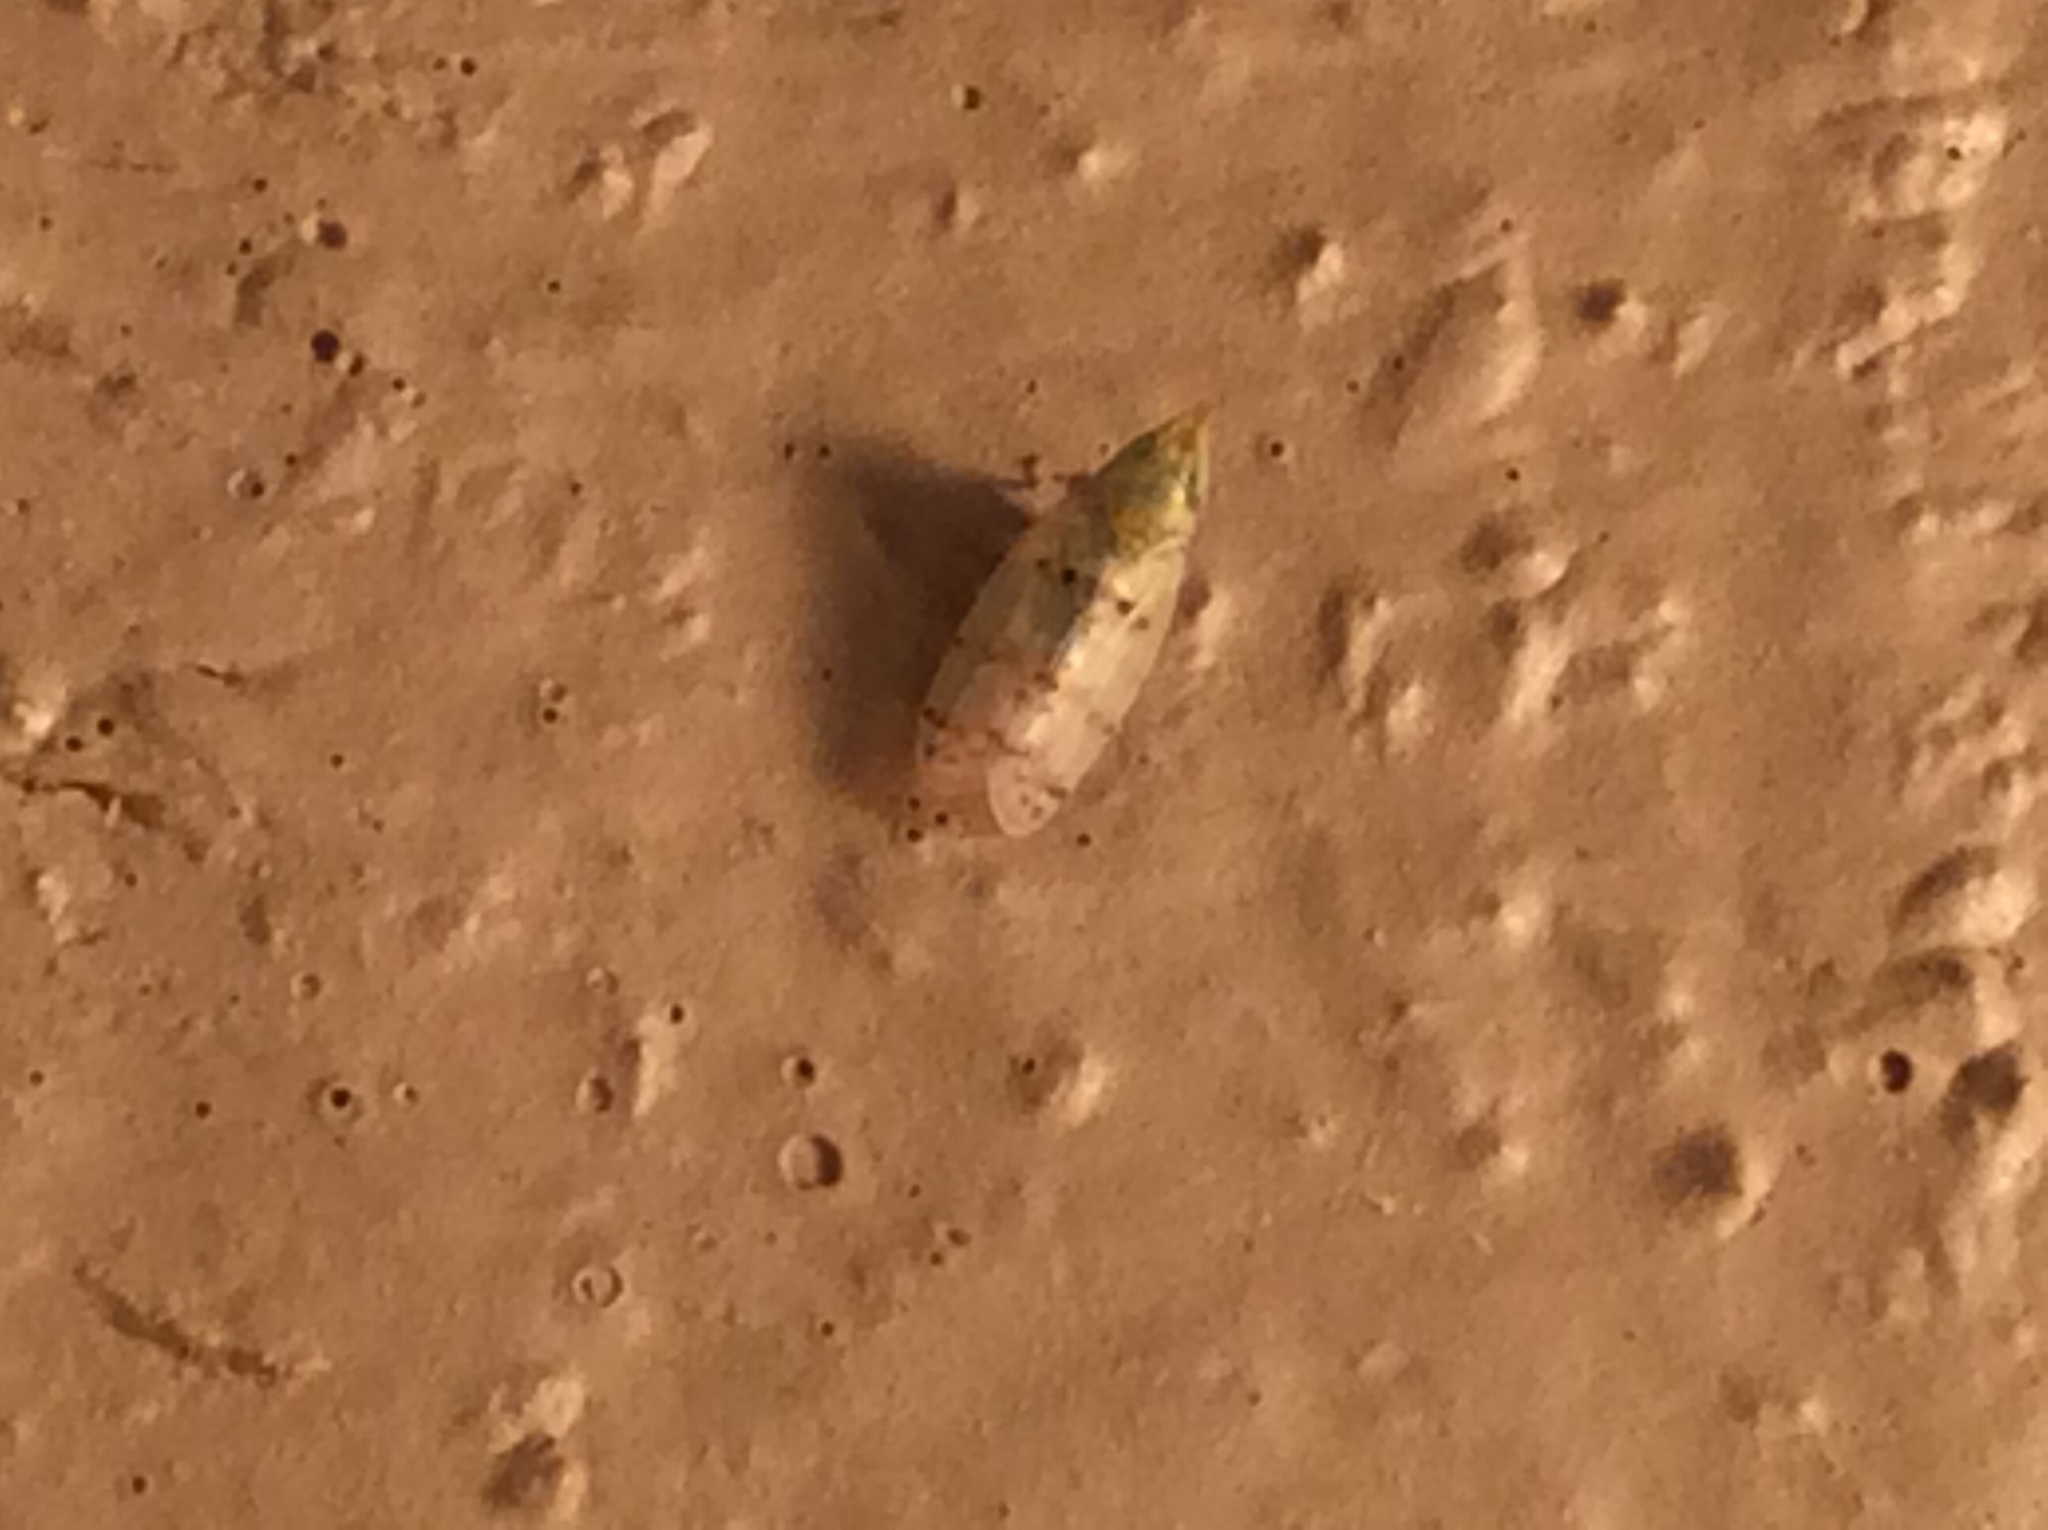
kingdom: Animalia
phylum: Arthropoda
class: Insecta
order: Hemiptera
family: Cicadellidae
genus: Japananus
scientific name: Japananus hyalinus
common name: The japanese maple leafhopper
